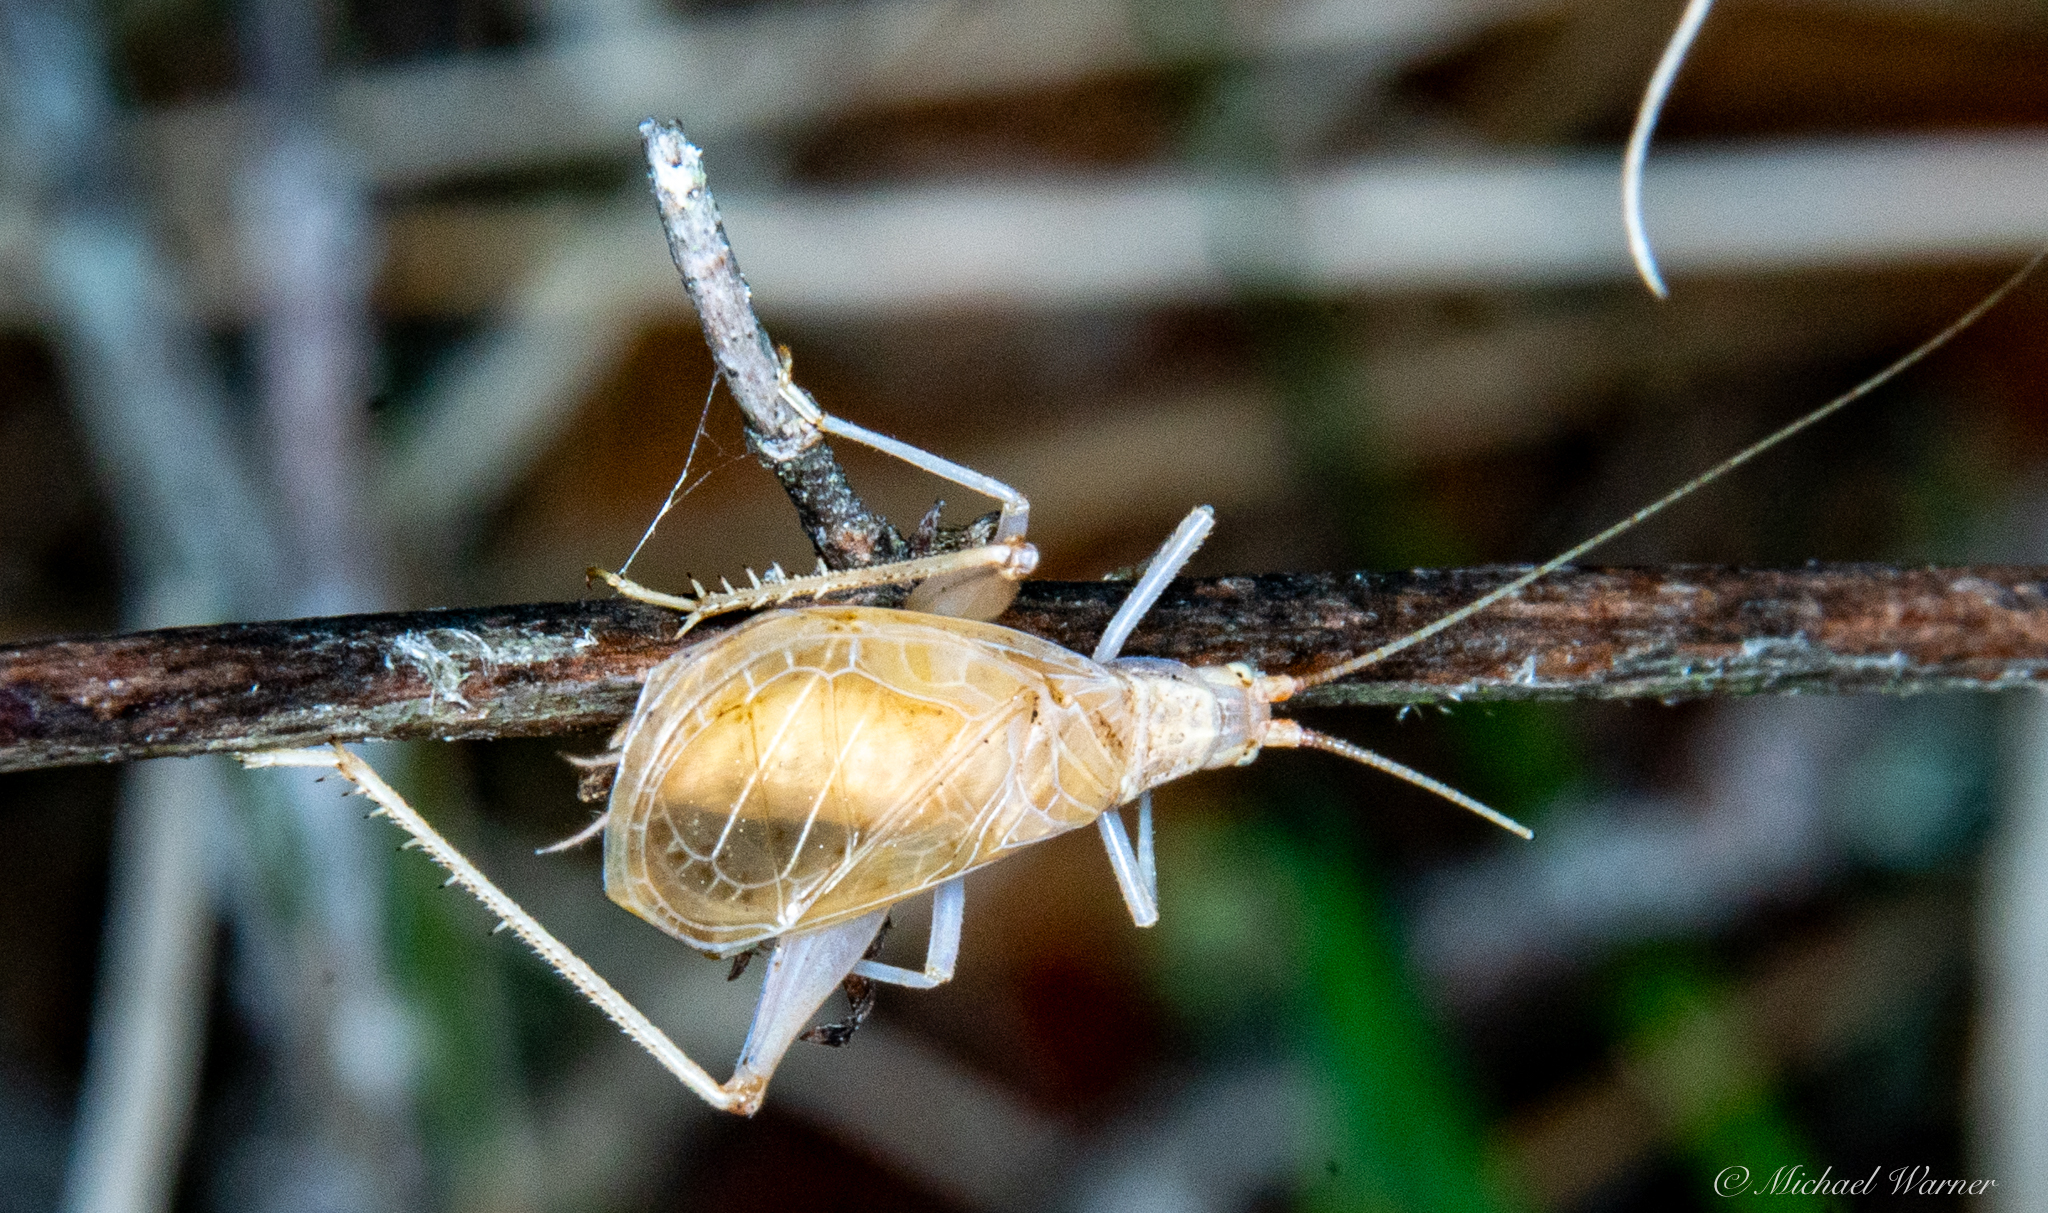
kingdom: Animalia
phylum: Arthropoda
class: Insecta
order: Orthoptera
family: Gryllidae
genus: Oecanthus
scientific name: Oecanthus californicus
